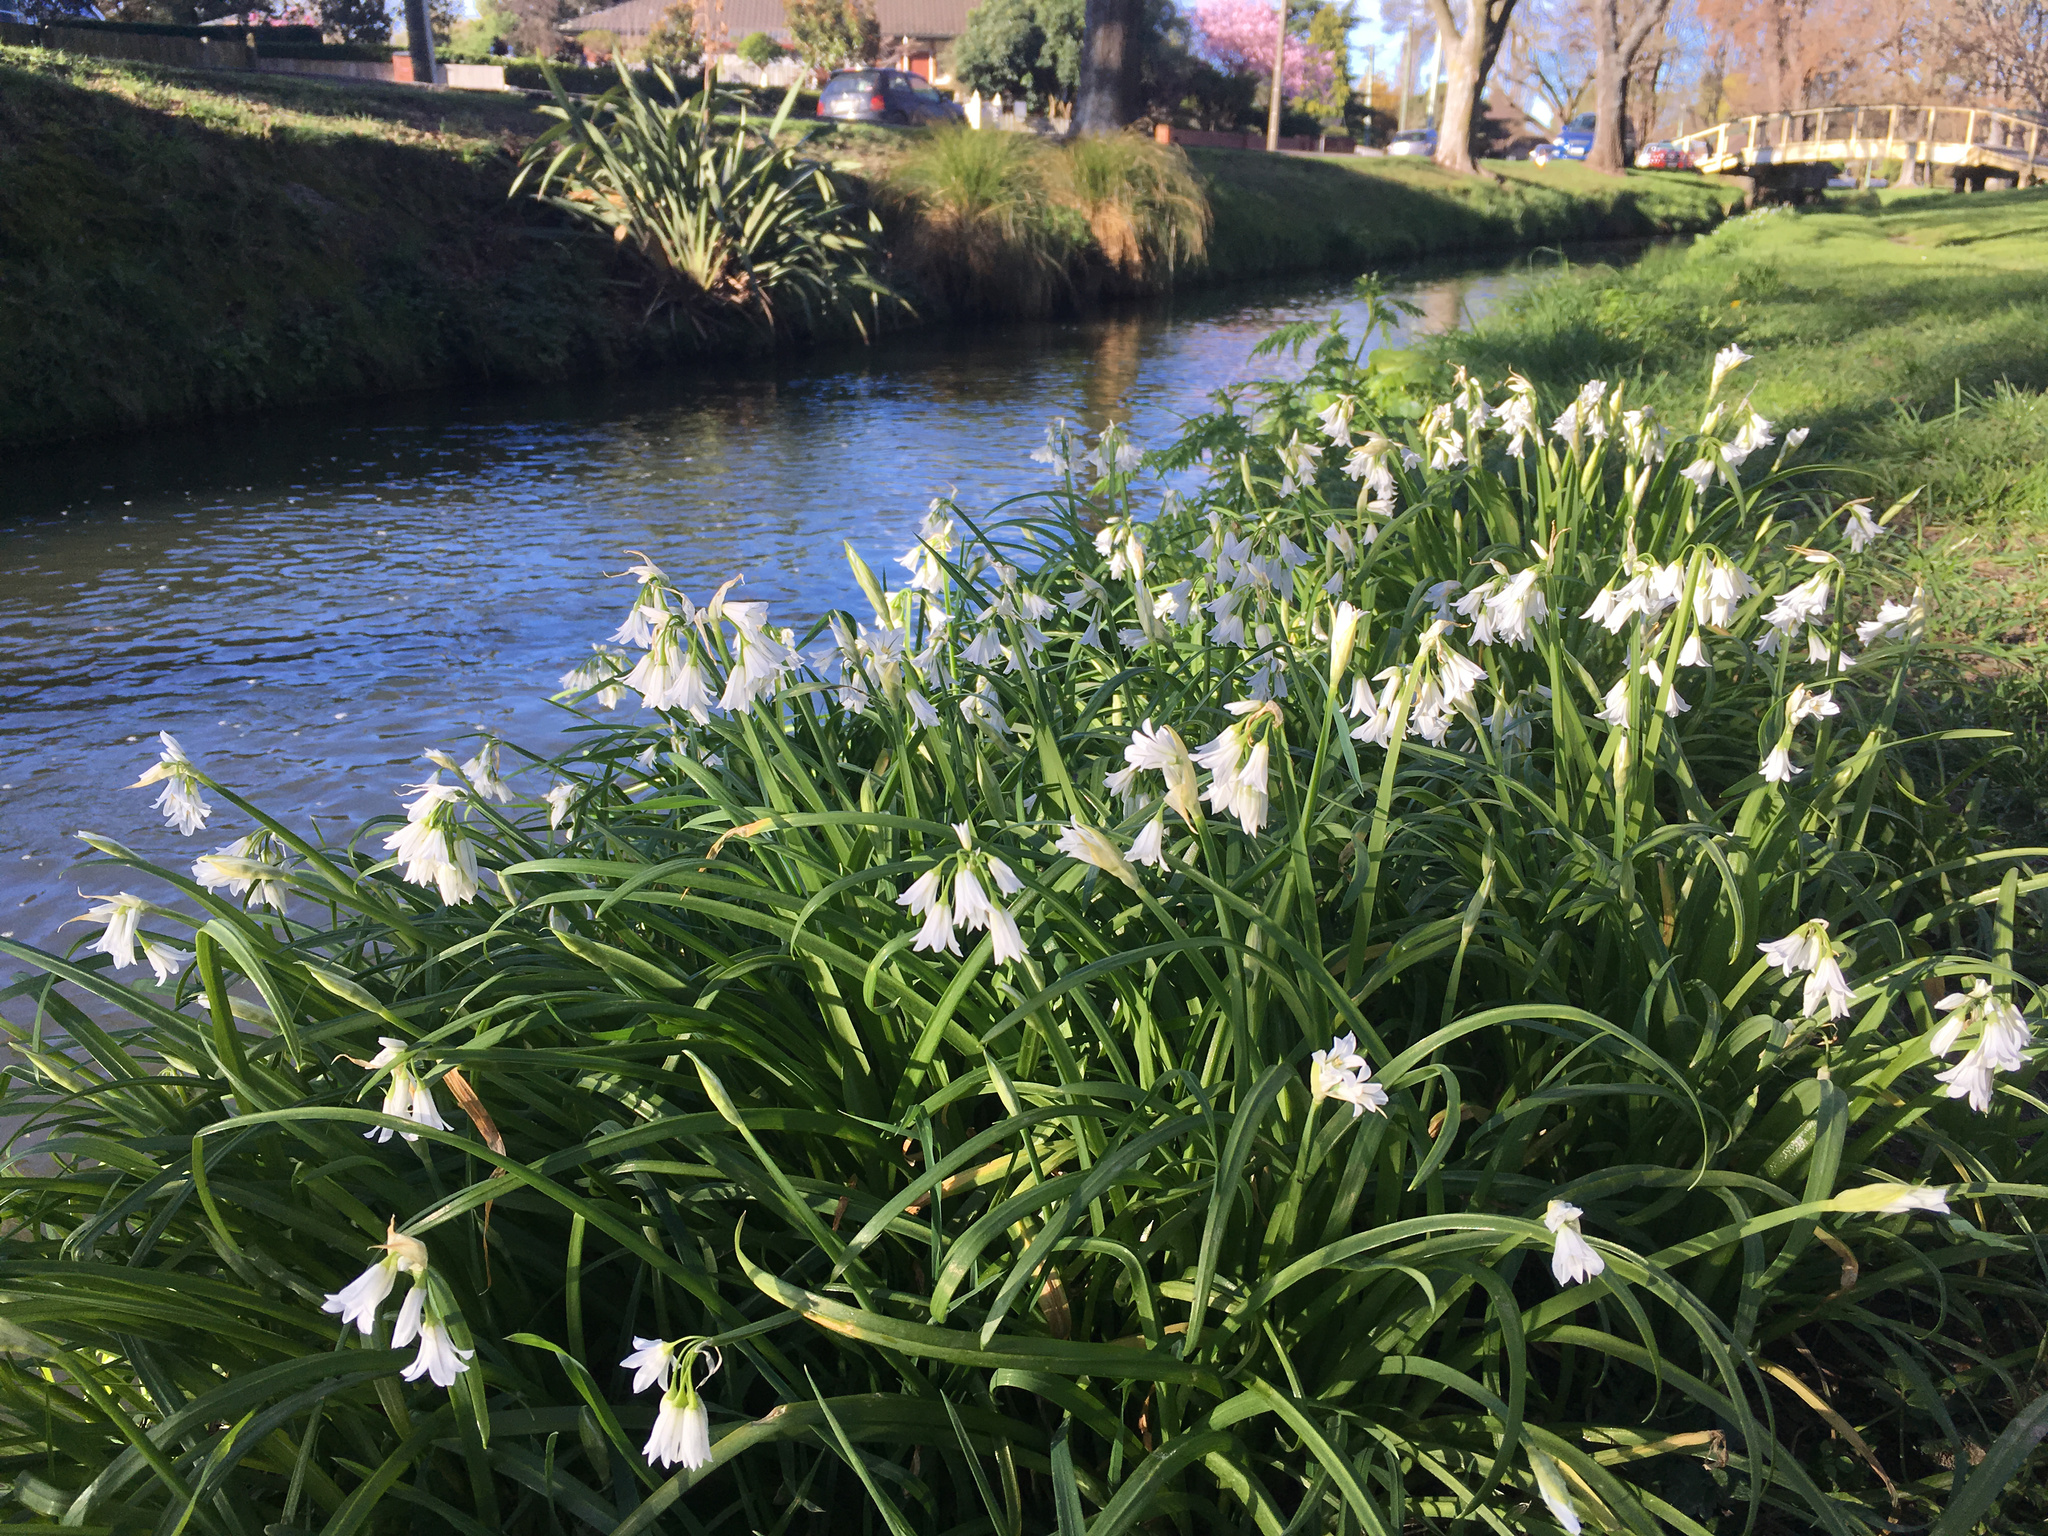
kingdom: Plantae
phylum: Tracheophyta
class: Liliopsida
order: Asparagales
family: Amaryllidaceae
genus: Allium
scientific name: Allium triquetrum
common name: Three-cornered garlic
